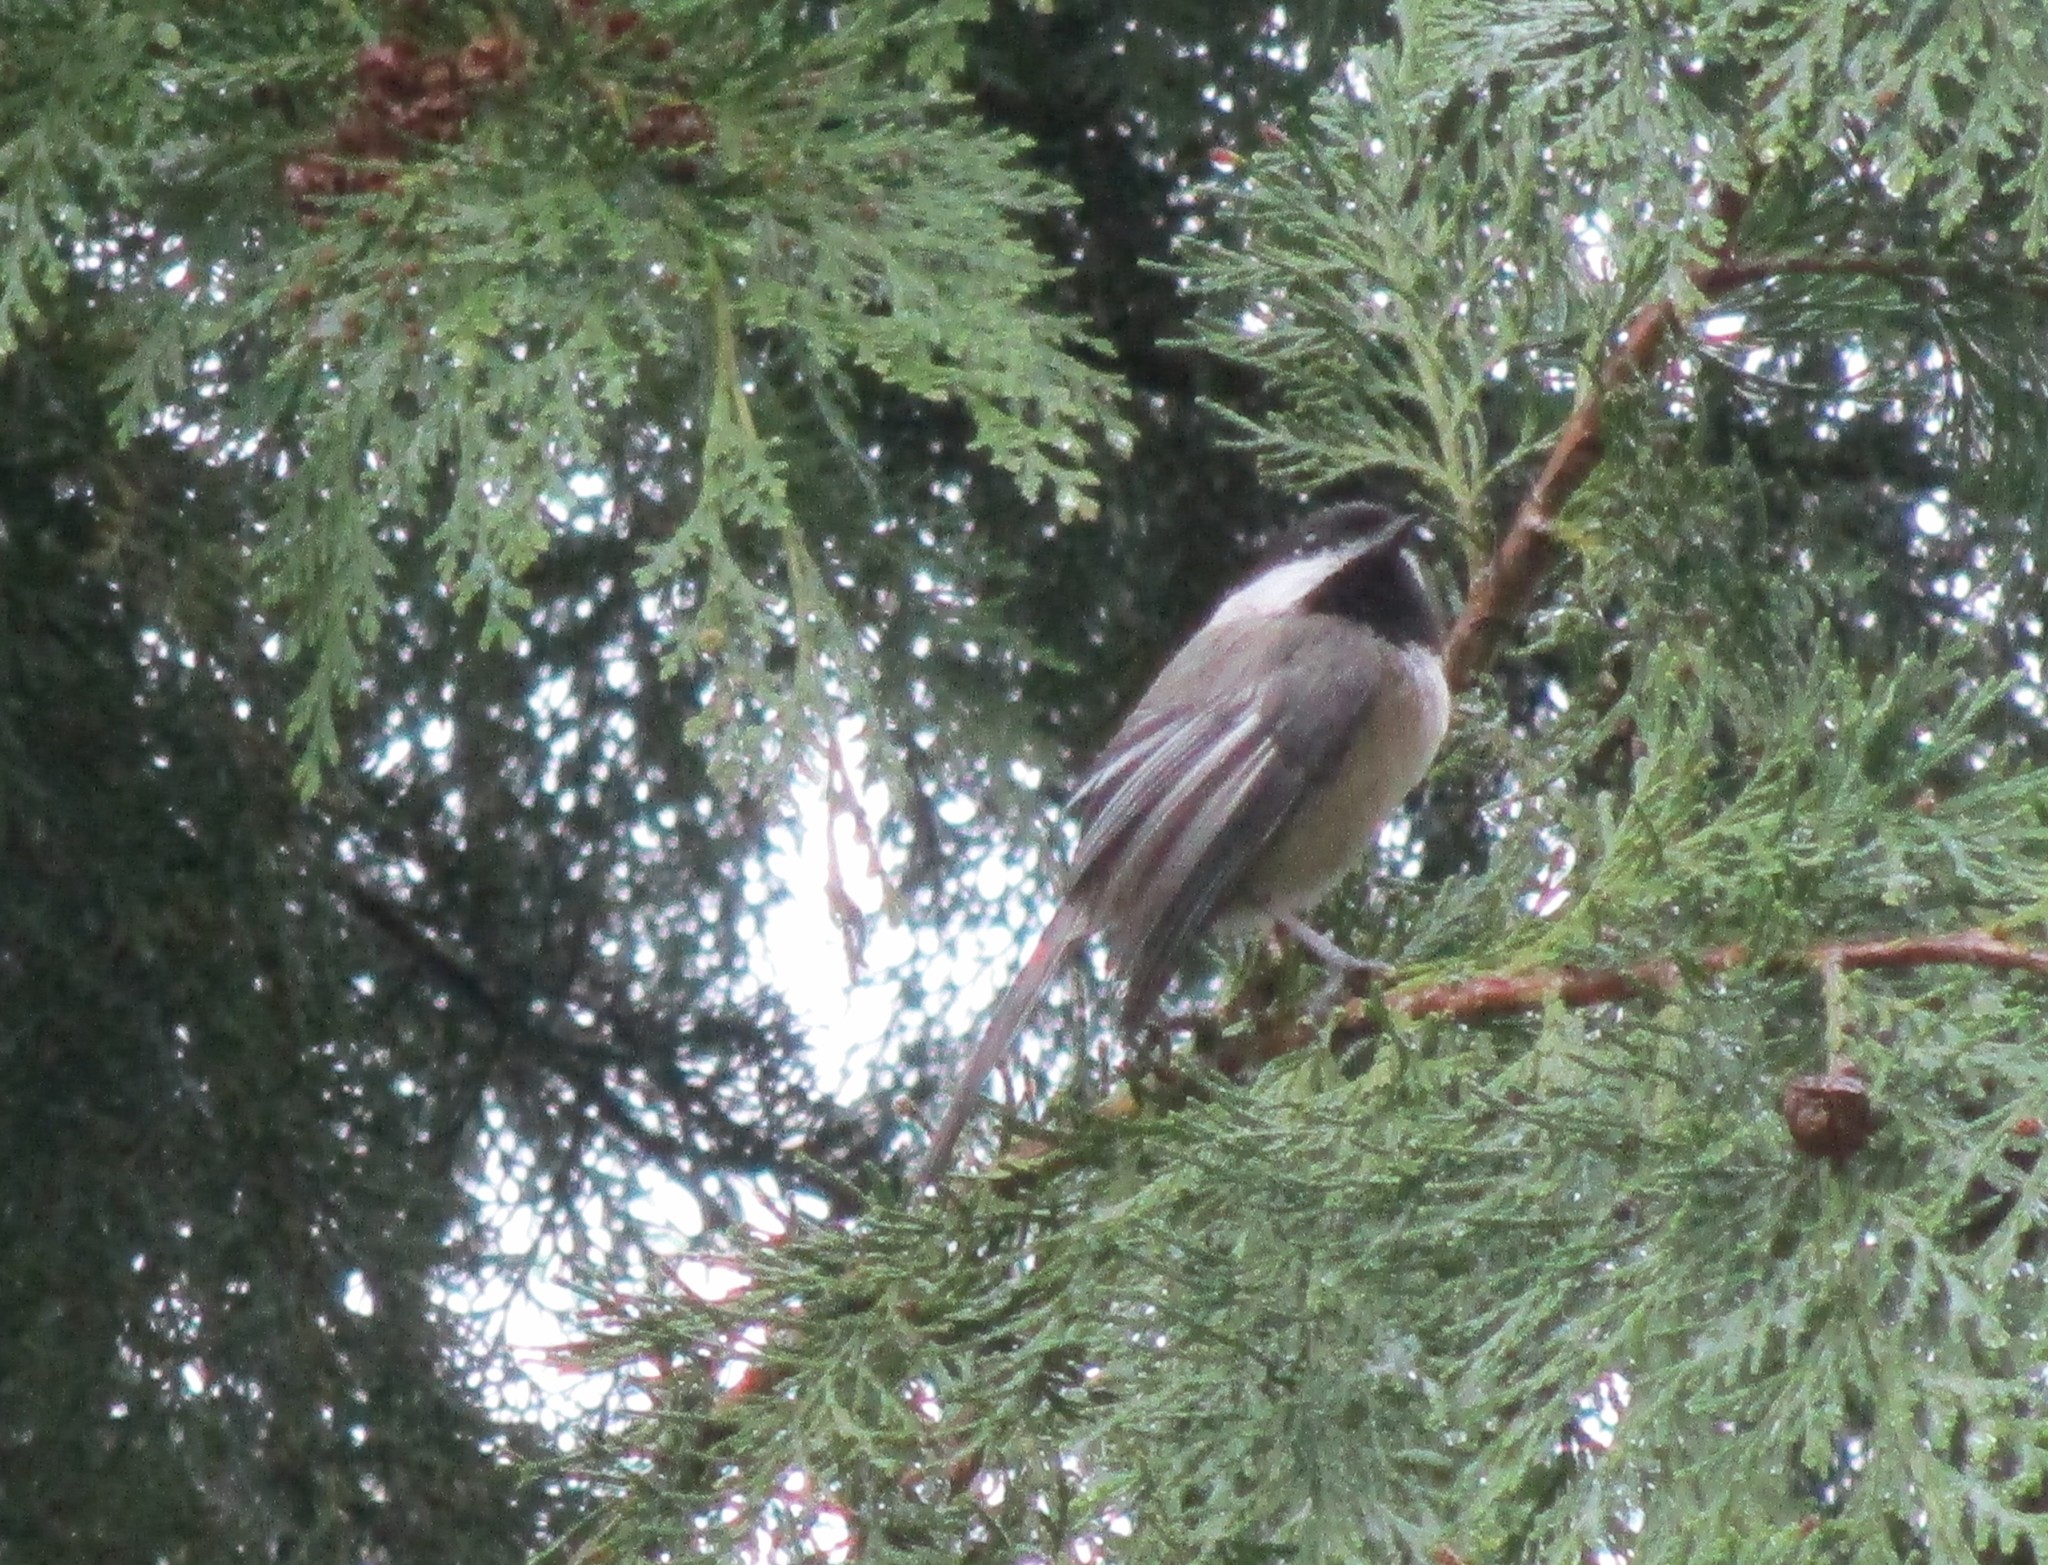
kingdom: Animalia
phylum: Chordata
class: Aves
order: Passeriformes
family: Paridae
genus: Poecile
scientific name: Poecile atricapillus
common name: Black-capped chickadee
